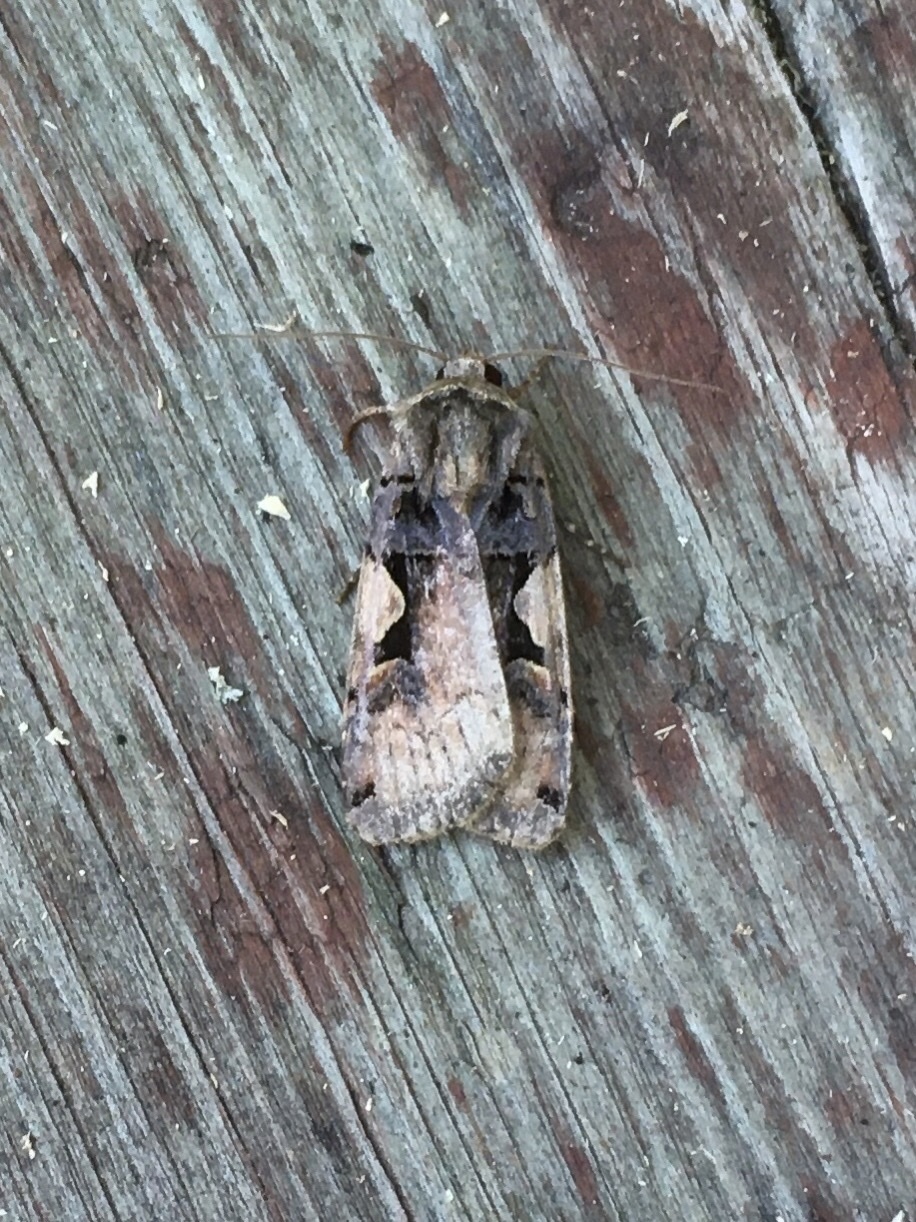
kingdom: Animalia
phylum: Arthropoda
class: Insecta
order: Lepidoptera
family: Noctuidae
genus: Xestia
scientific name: Xestia
